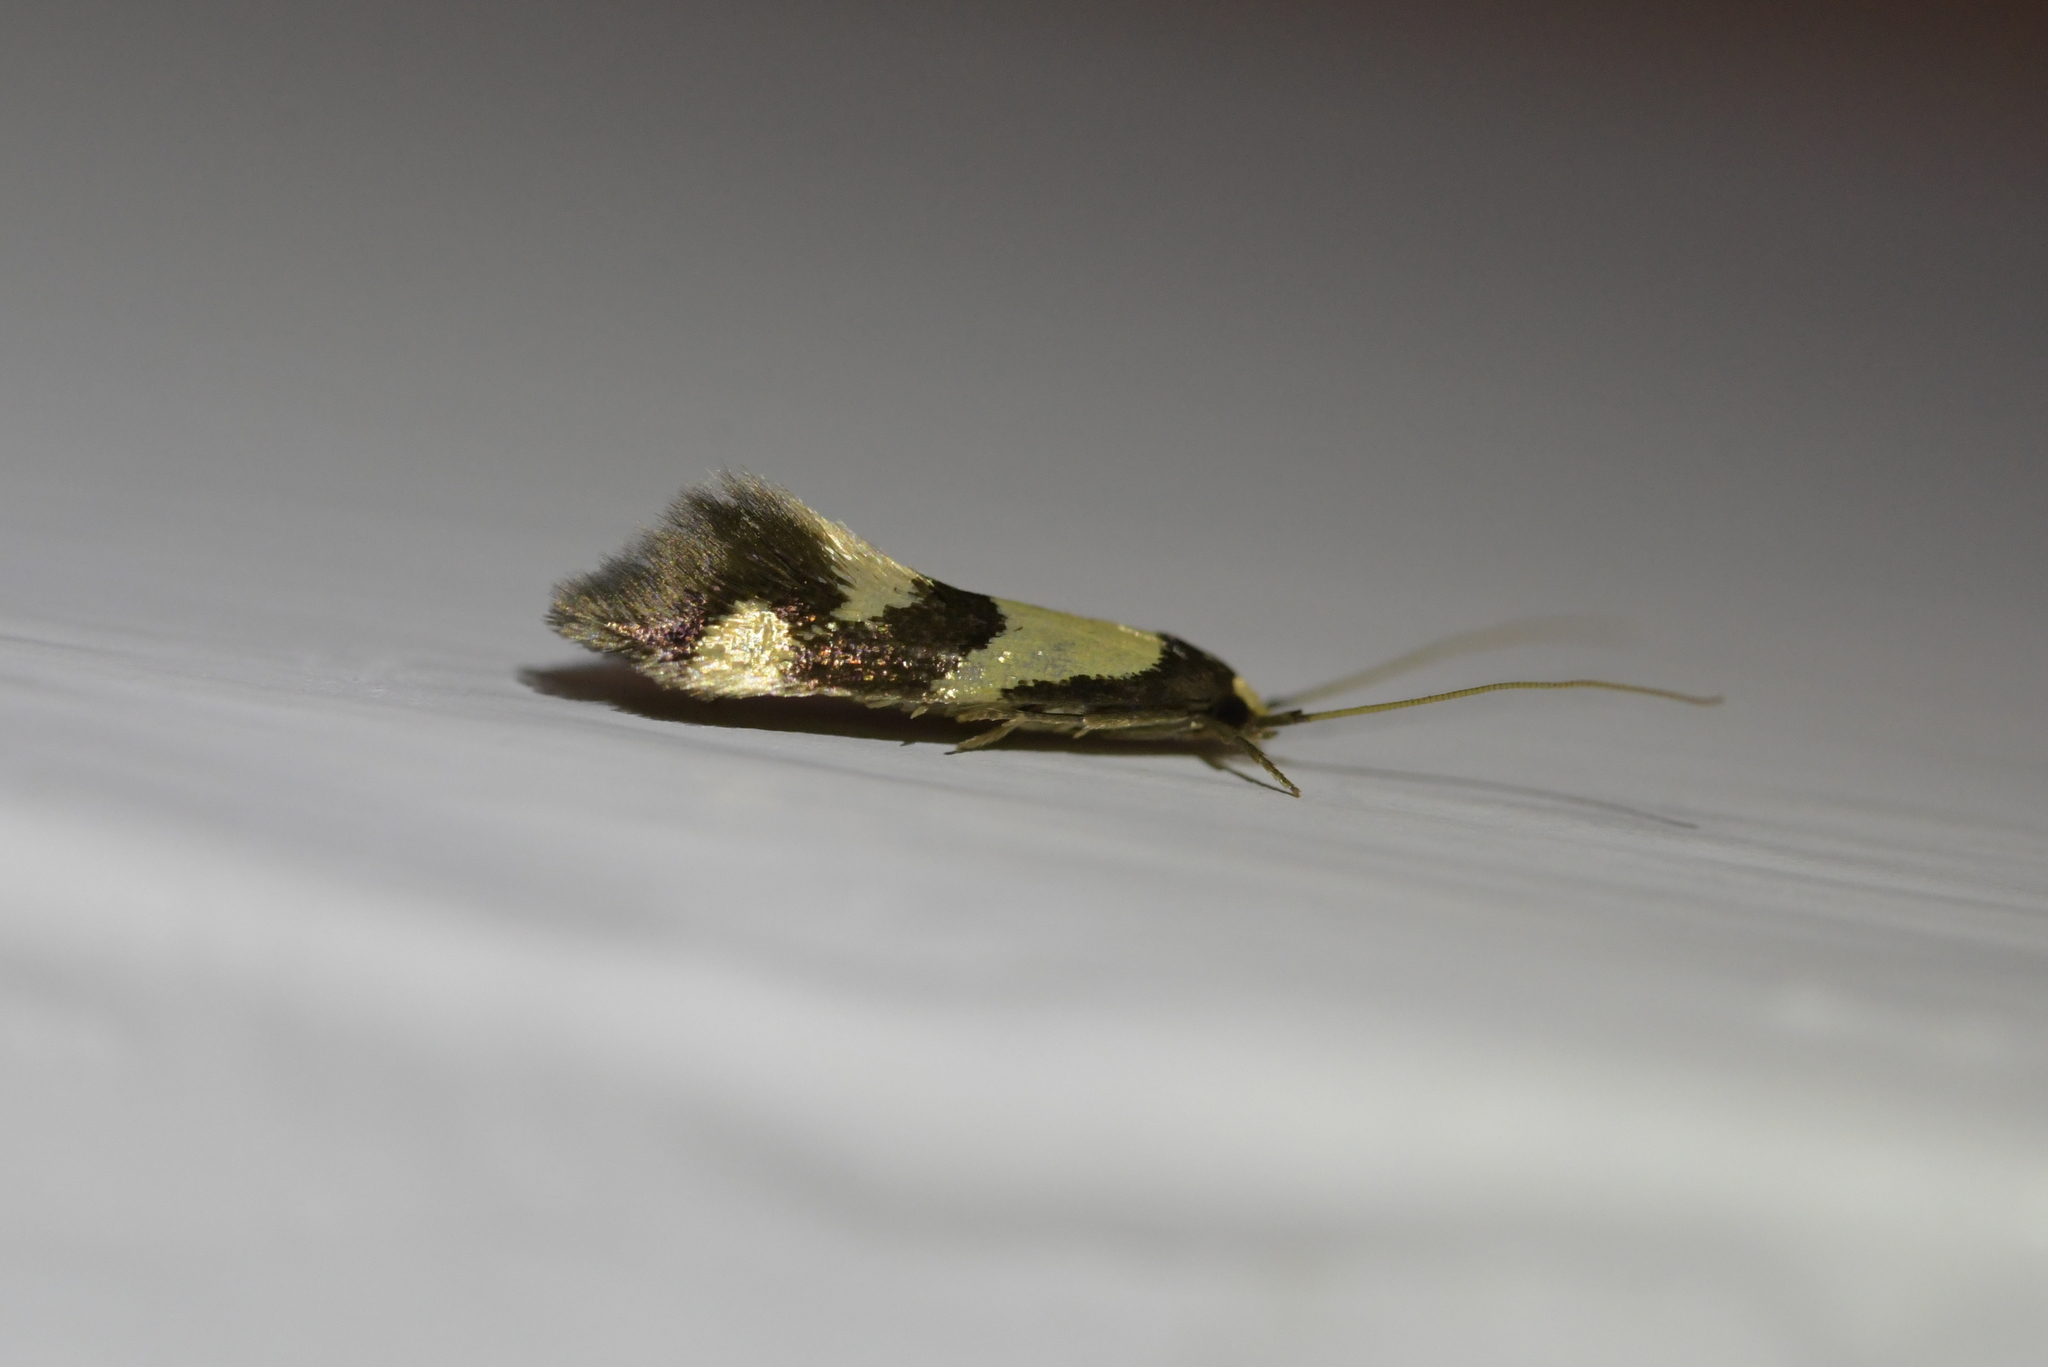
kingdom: Animalia
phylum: Arthropoda
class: Insecta
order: Lepidoptera
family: Tineidae
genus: Opogona
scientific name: Opogona comptella
